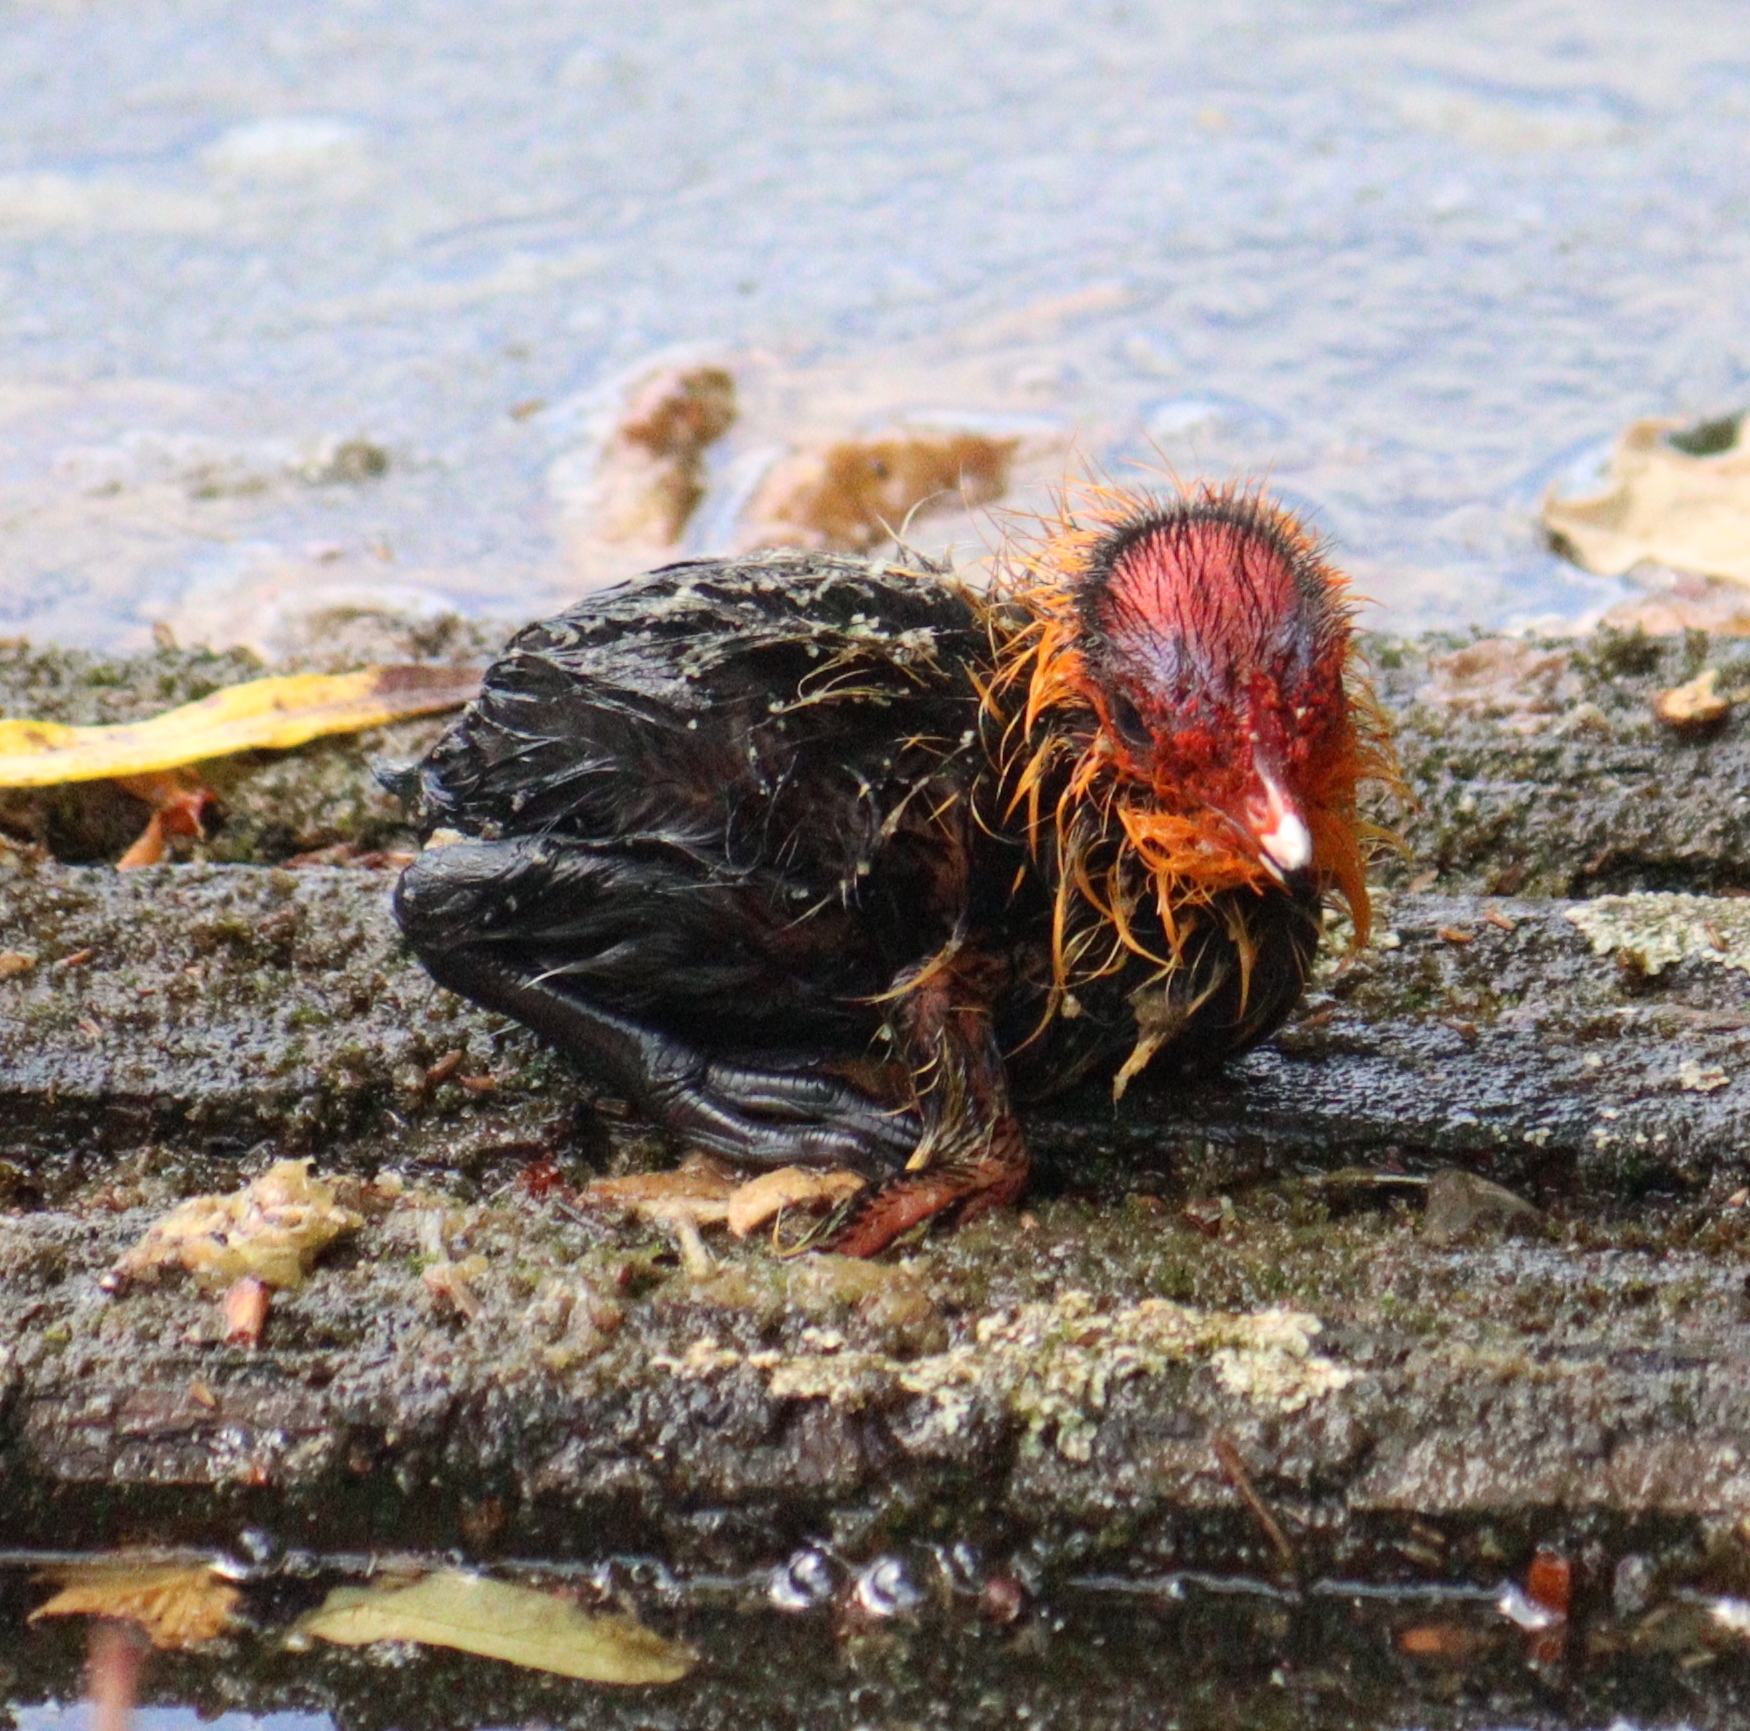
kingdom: Animalia
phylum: Chordata
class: Aves
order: Gruiformes
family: Rallidae
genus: Fulica
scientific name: Fulica atra
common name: Eurasian coot
